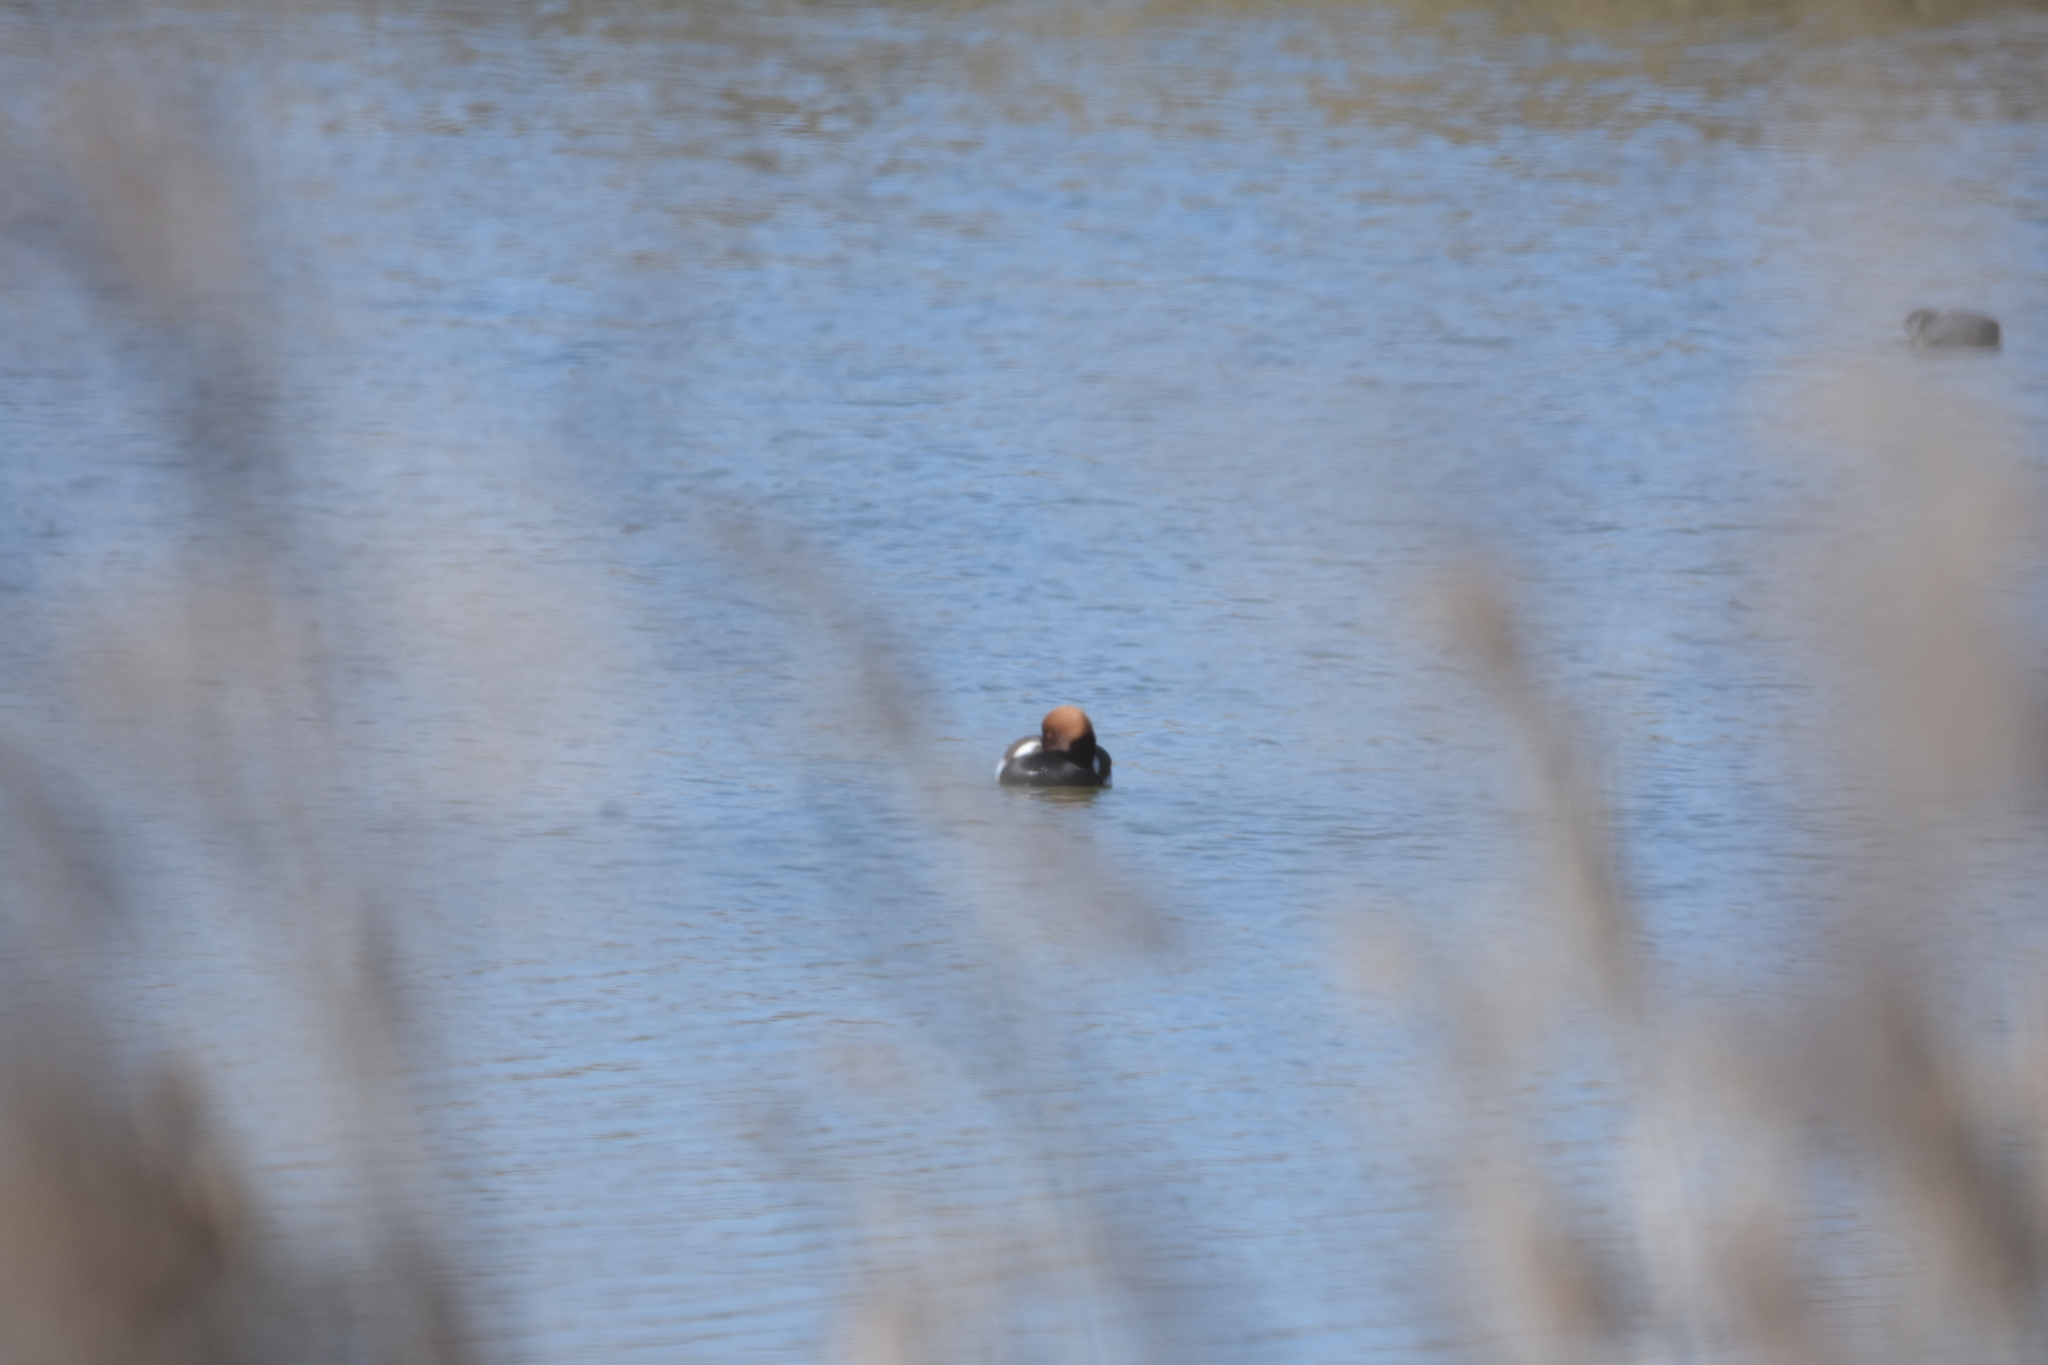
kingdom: Animalia
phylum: Chordata
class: Aves
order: Anseriformes
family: Anatidae
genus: Netta
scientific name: Netta rufina
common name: Red-crested pochard
